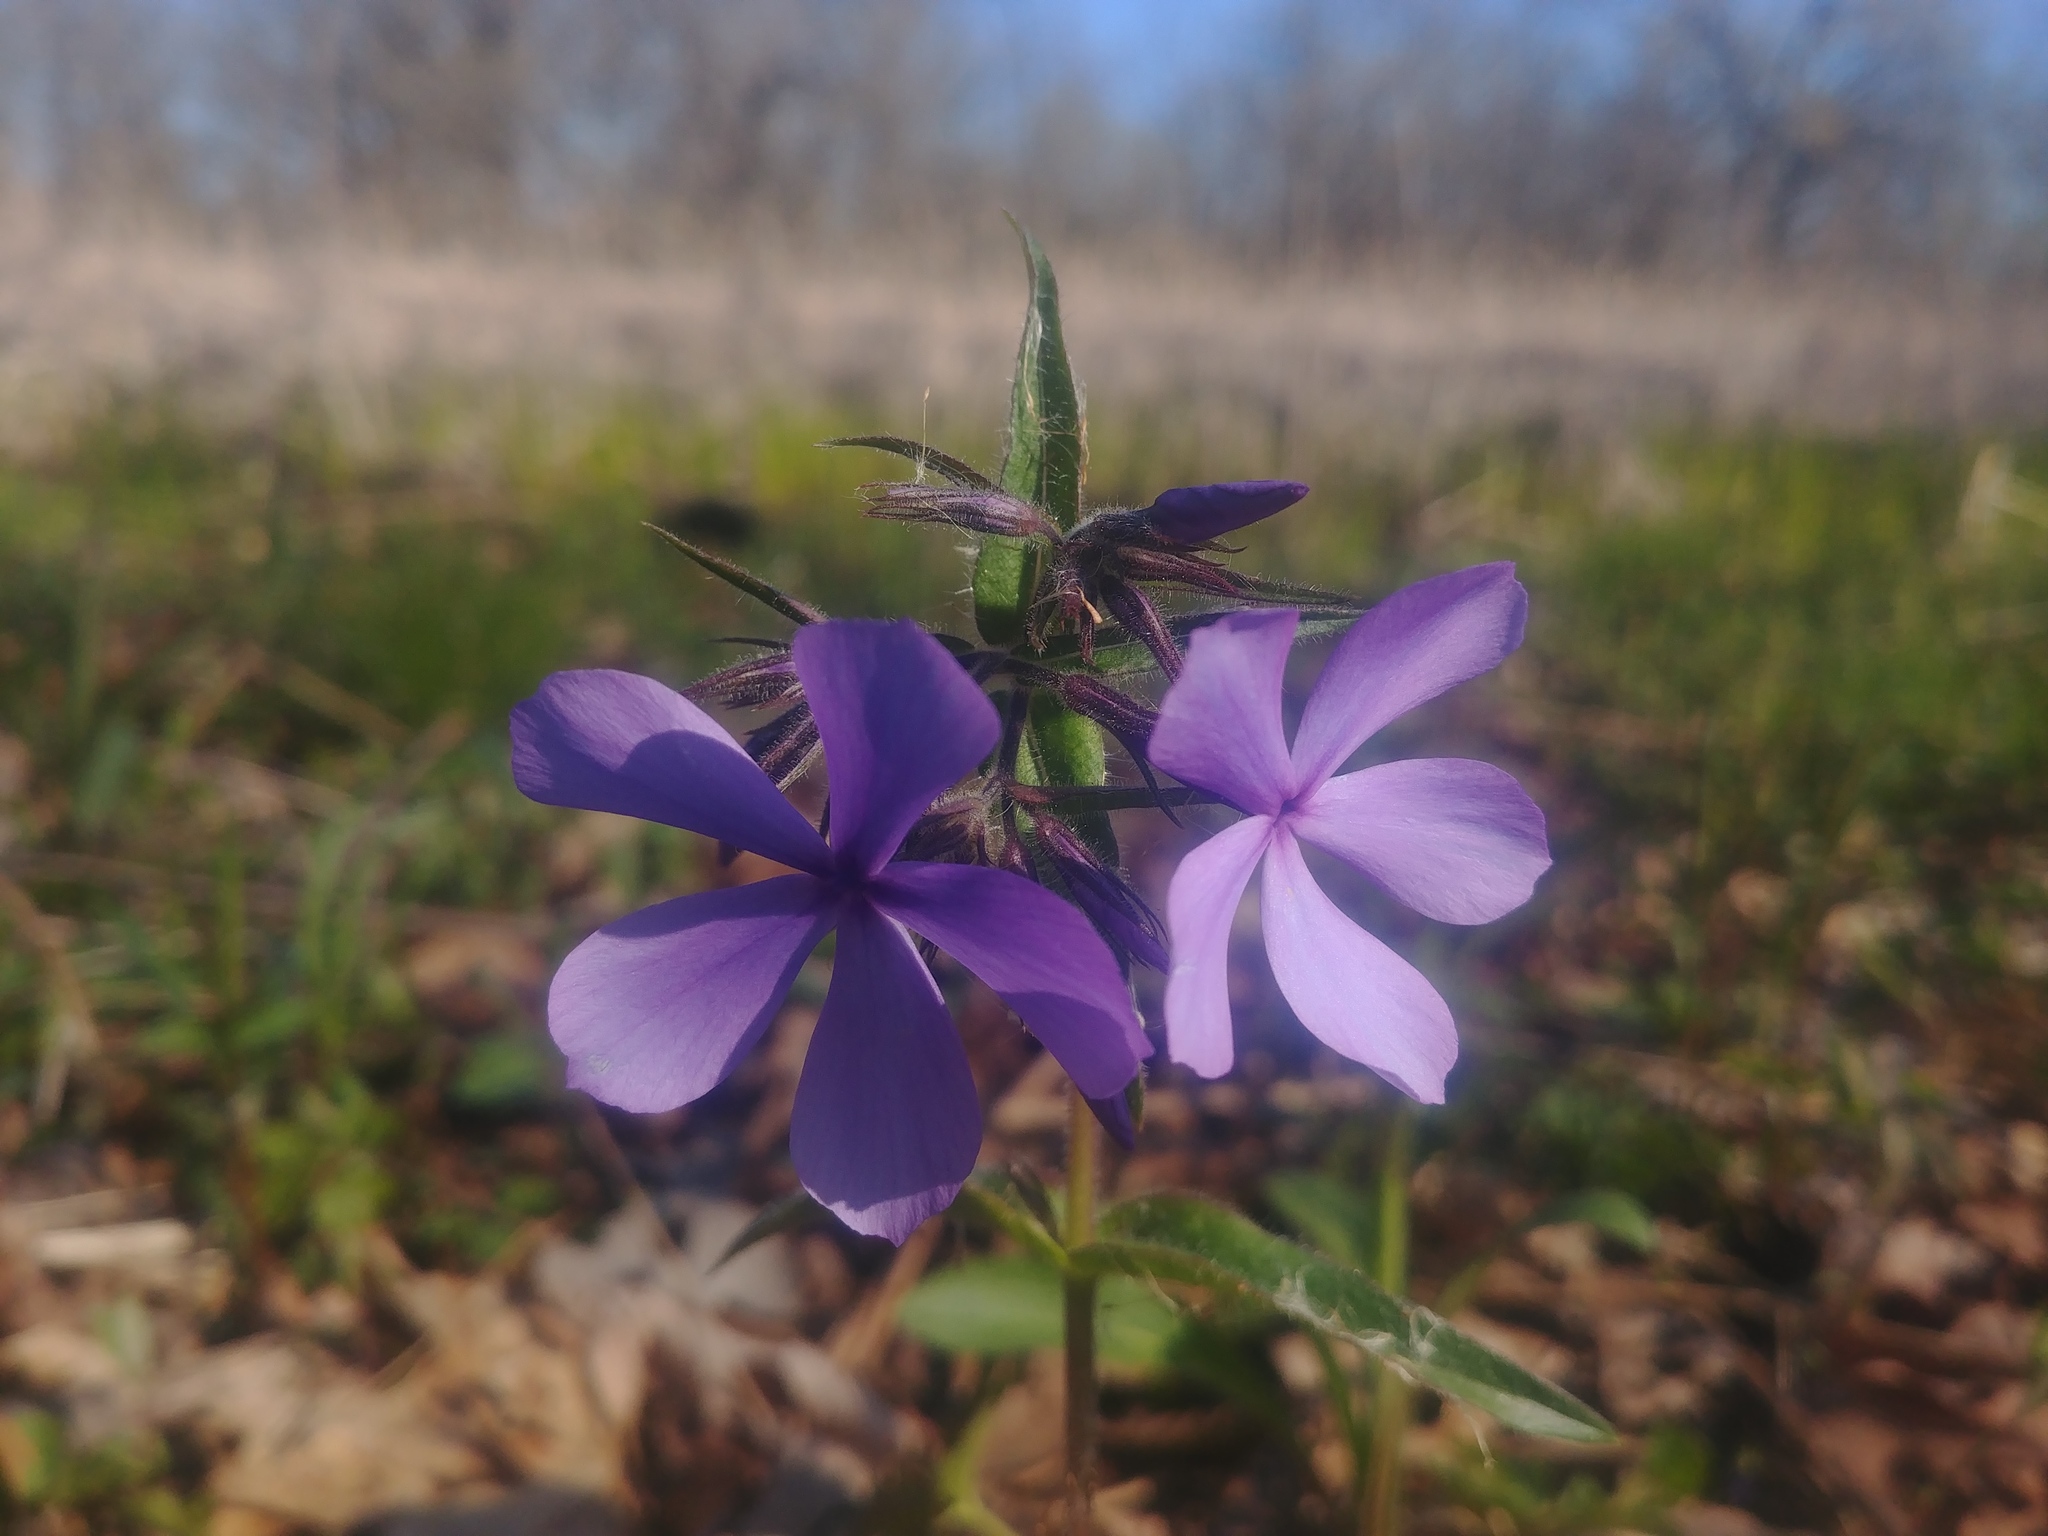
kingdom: Plantae
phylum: Tracheophyta
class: Magnoliopsida
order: Ericales
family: Polemoniaceae
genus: Phlox
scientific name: Phlox divaricata
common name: Blue phlox
